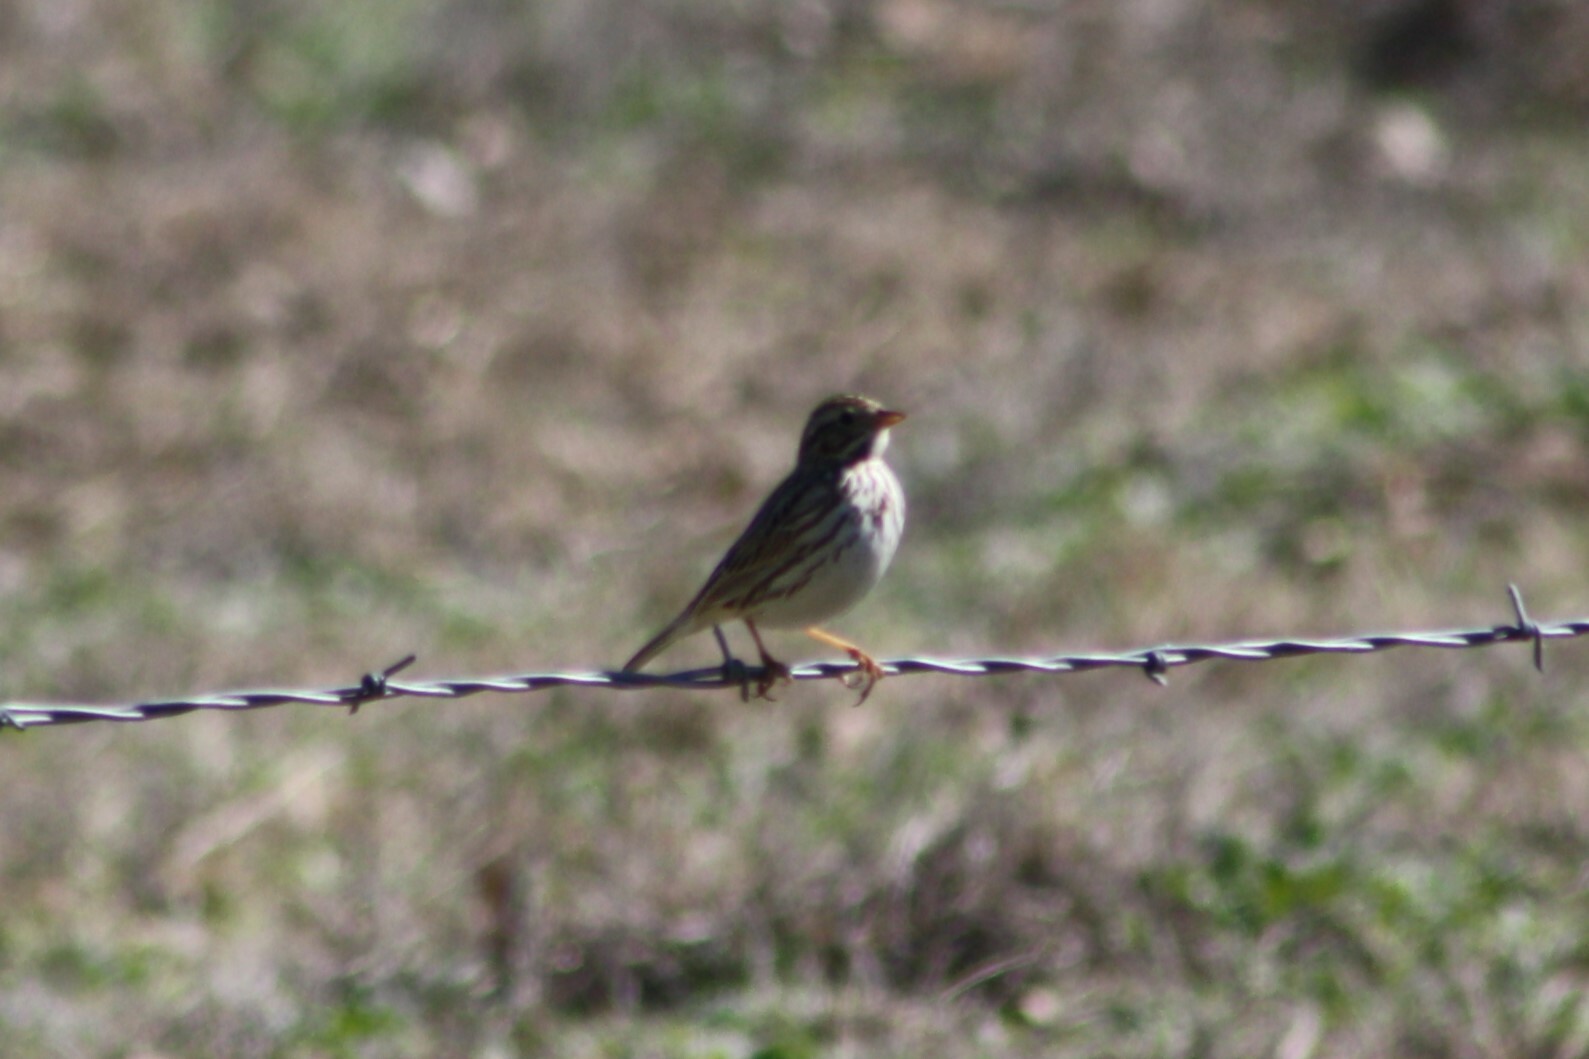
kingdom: Animalia
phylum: Chordata
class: Aves
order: Passeriformes
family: Passerellidae
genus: Passerculus
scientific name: Passerculus sandwichensis
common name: Savannah sparrow
